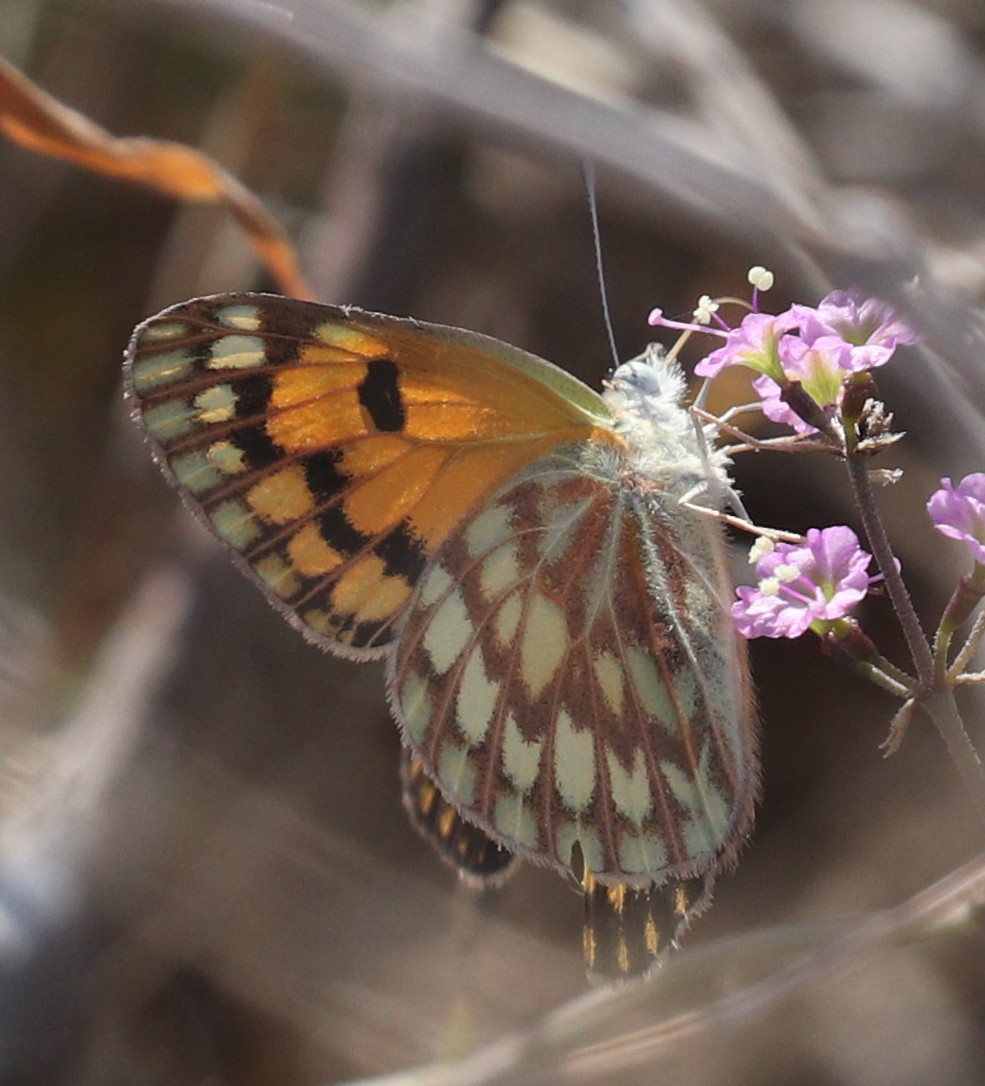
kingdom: Animalia
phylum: Arthropoda
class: Insecta
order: Lepidoptera
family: Pieridae
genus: Colotis
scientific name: Colotis aurigineus
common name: African golden arab
